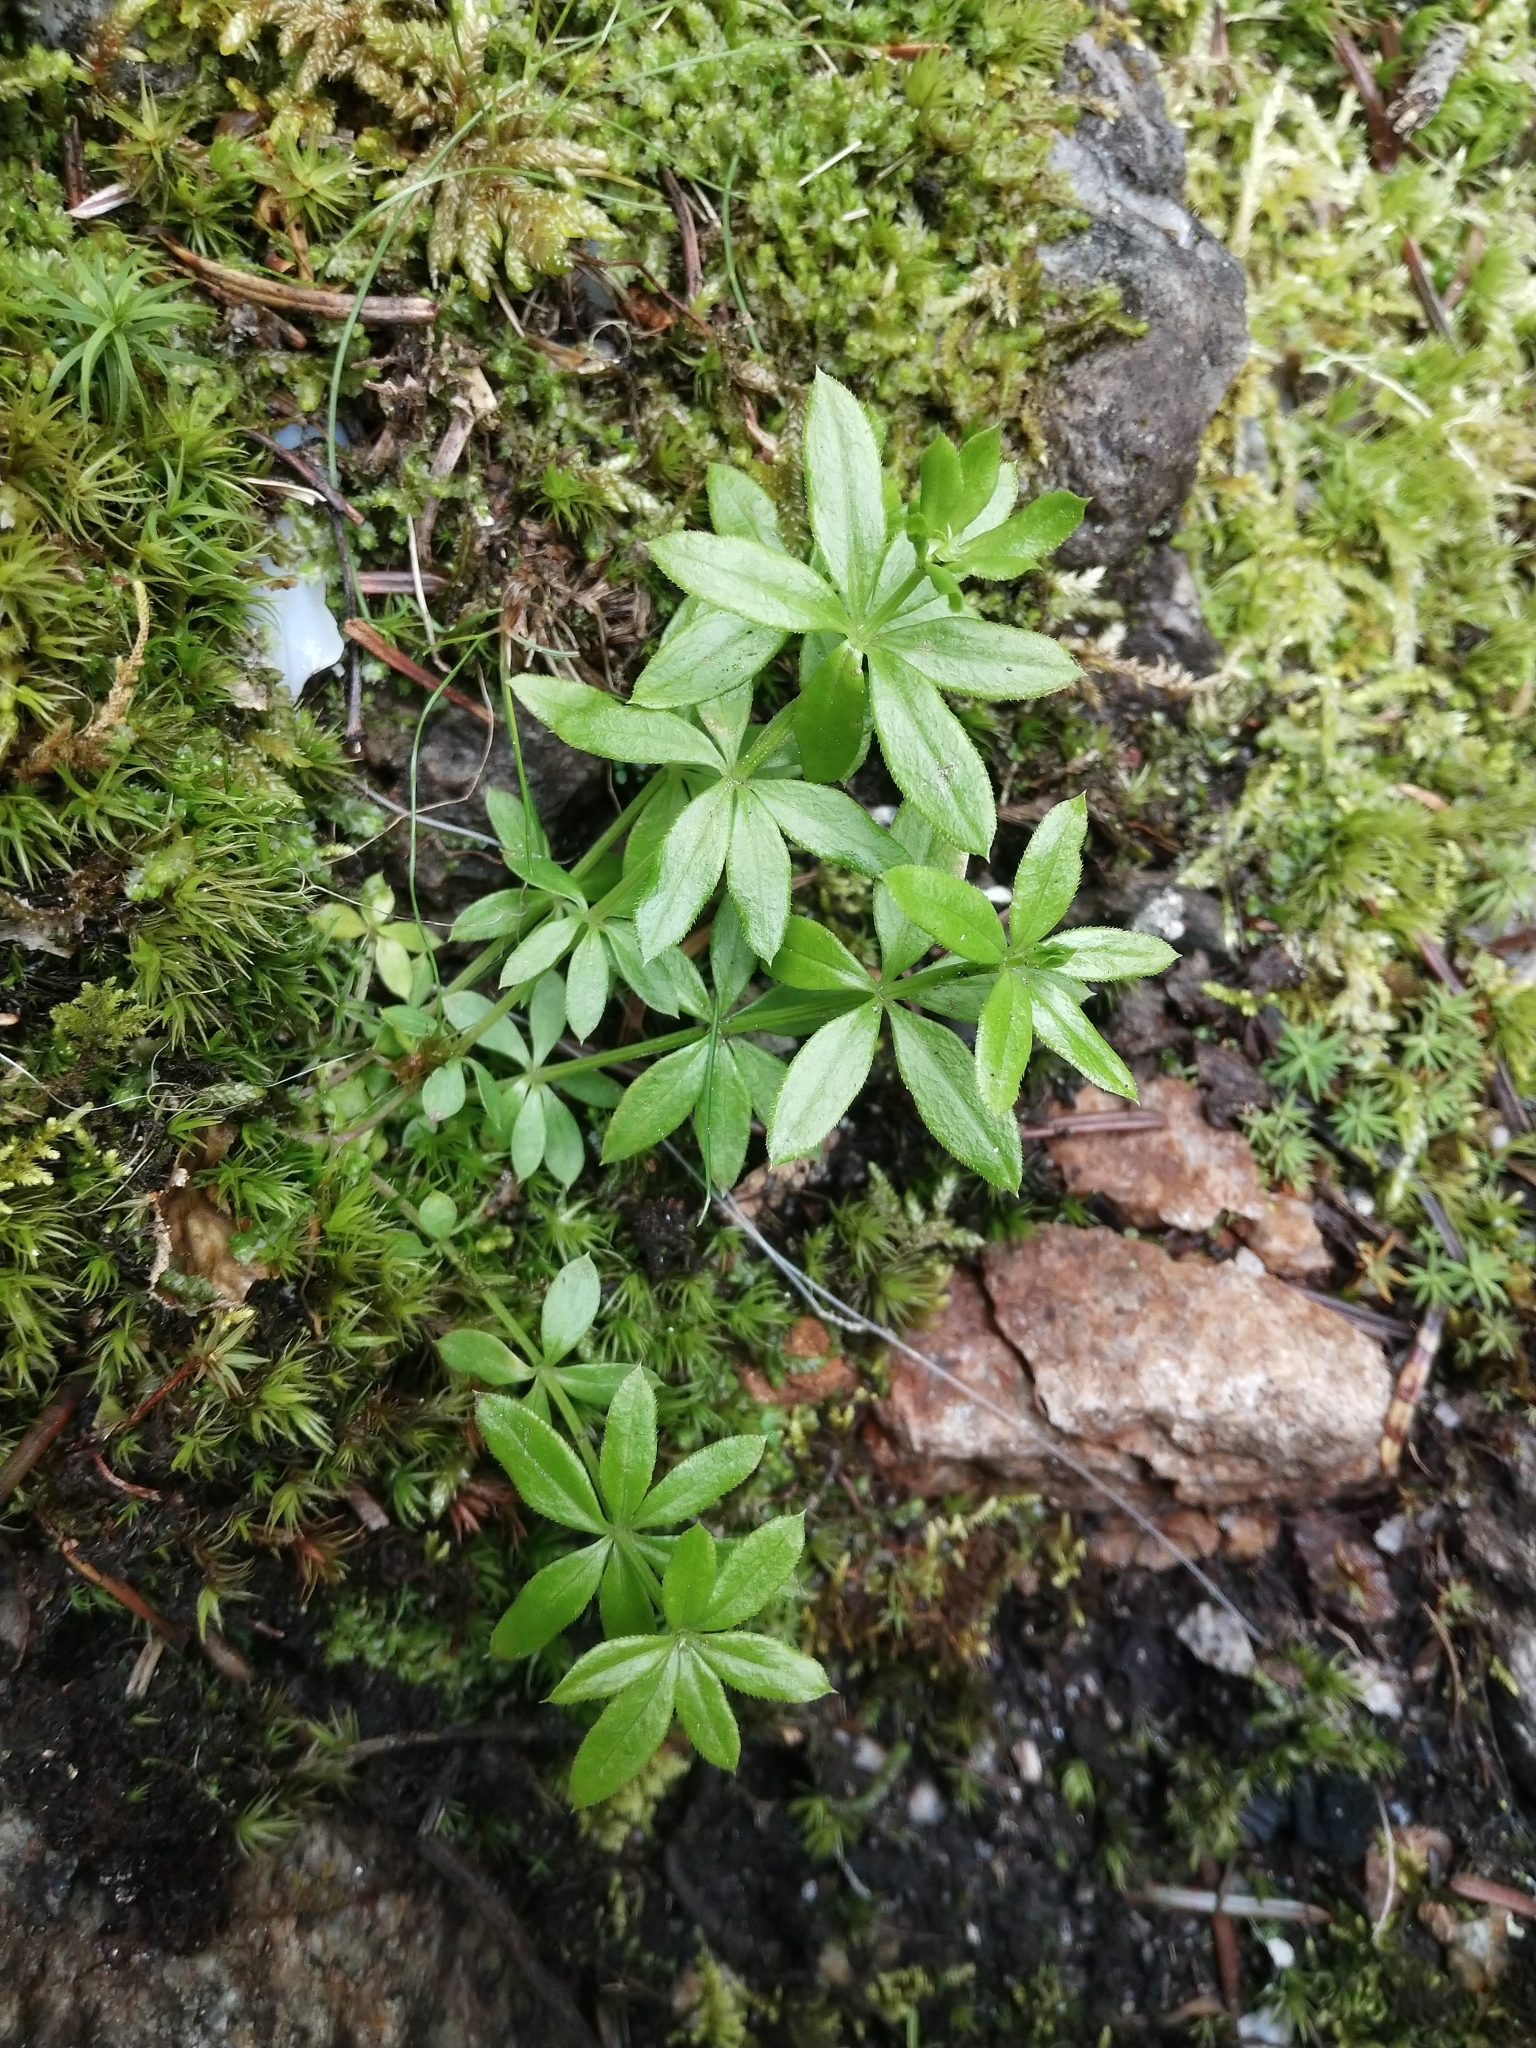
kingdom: Plantae
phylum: Tracheophyta
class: Magnoliopsida
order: Gentianales
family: Rubiaceae
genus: Galium
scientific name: Galium triflorum
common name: Fragrant bedstraw
